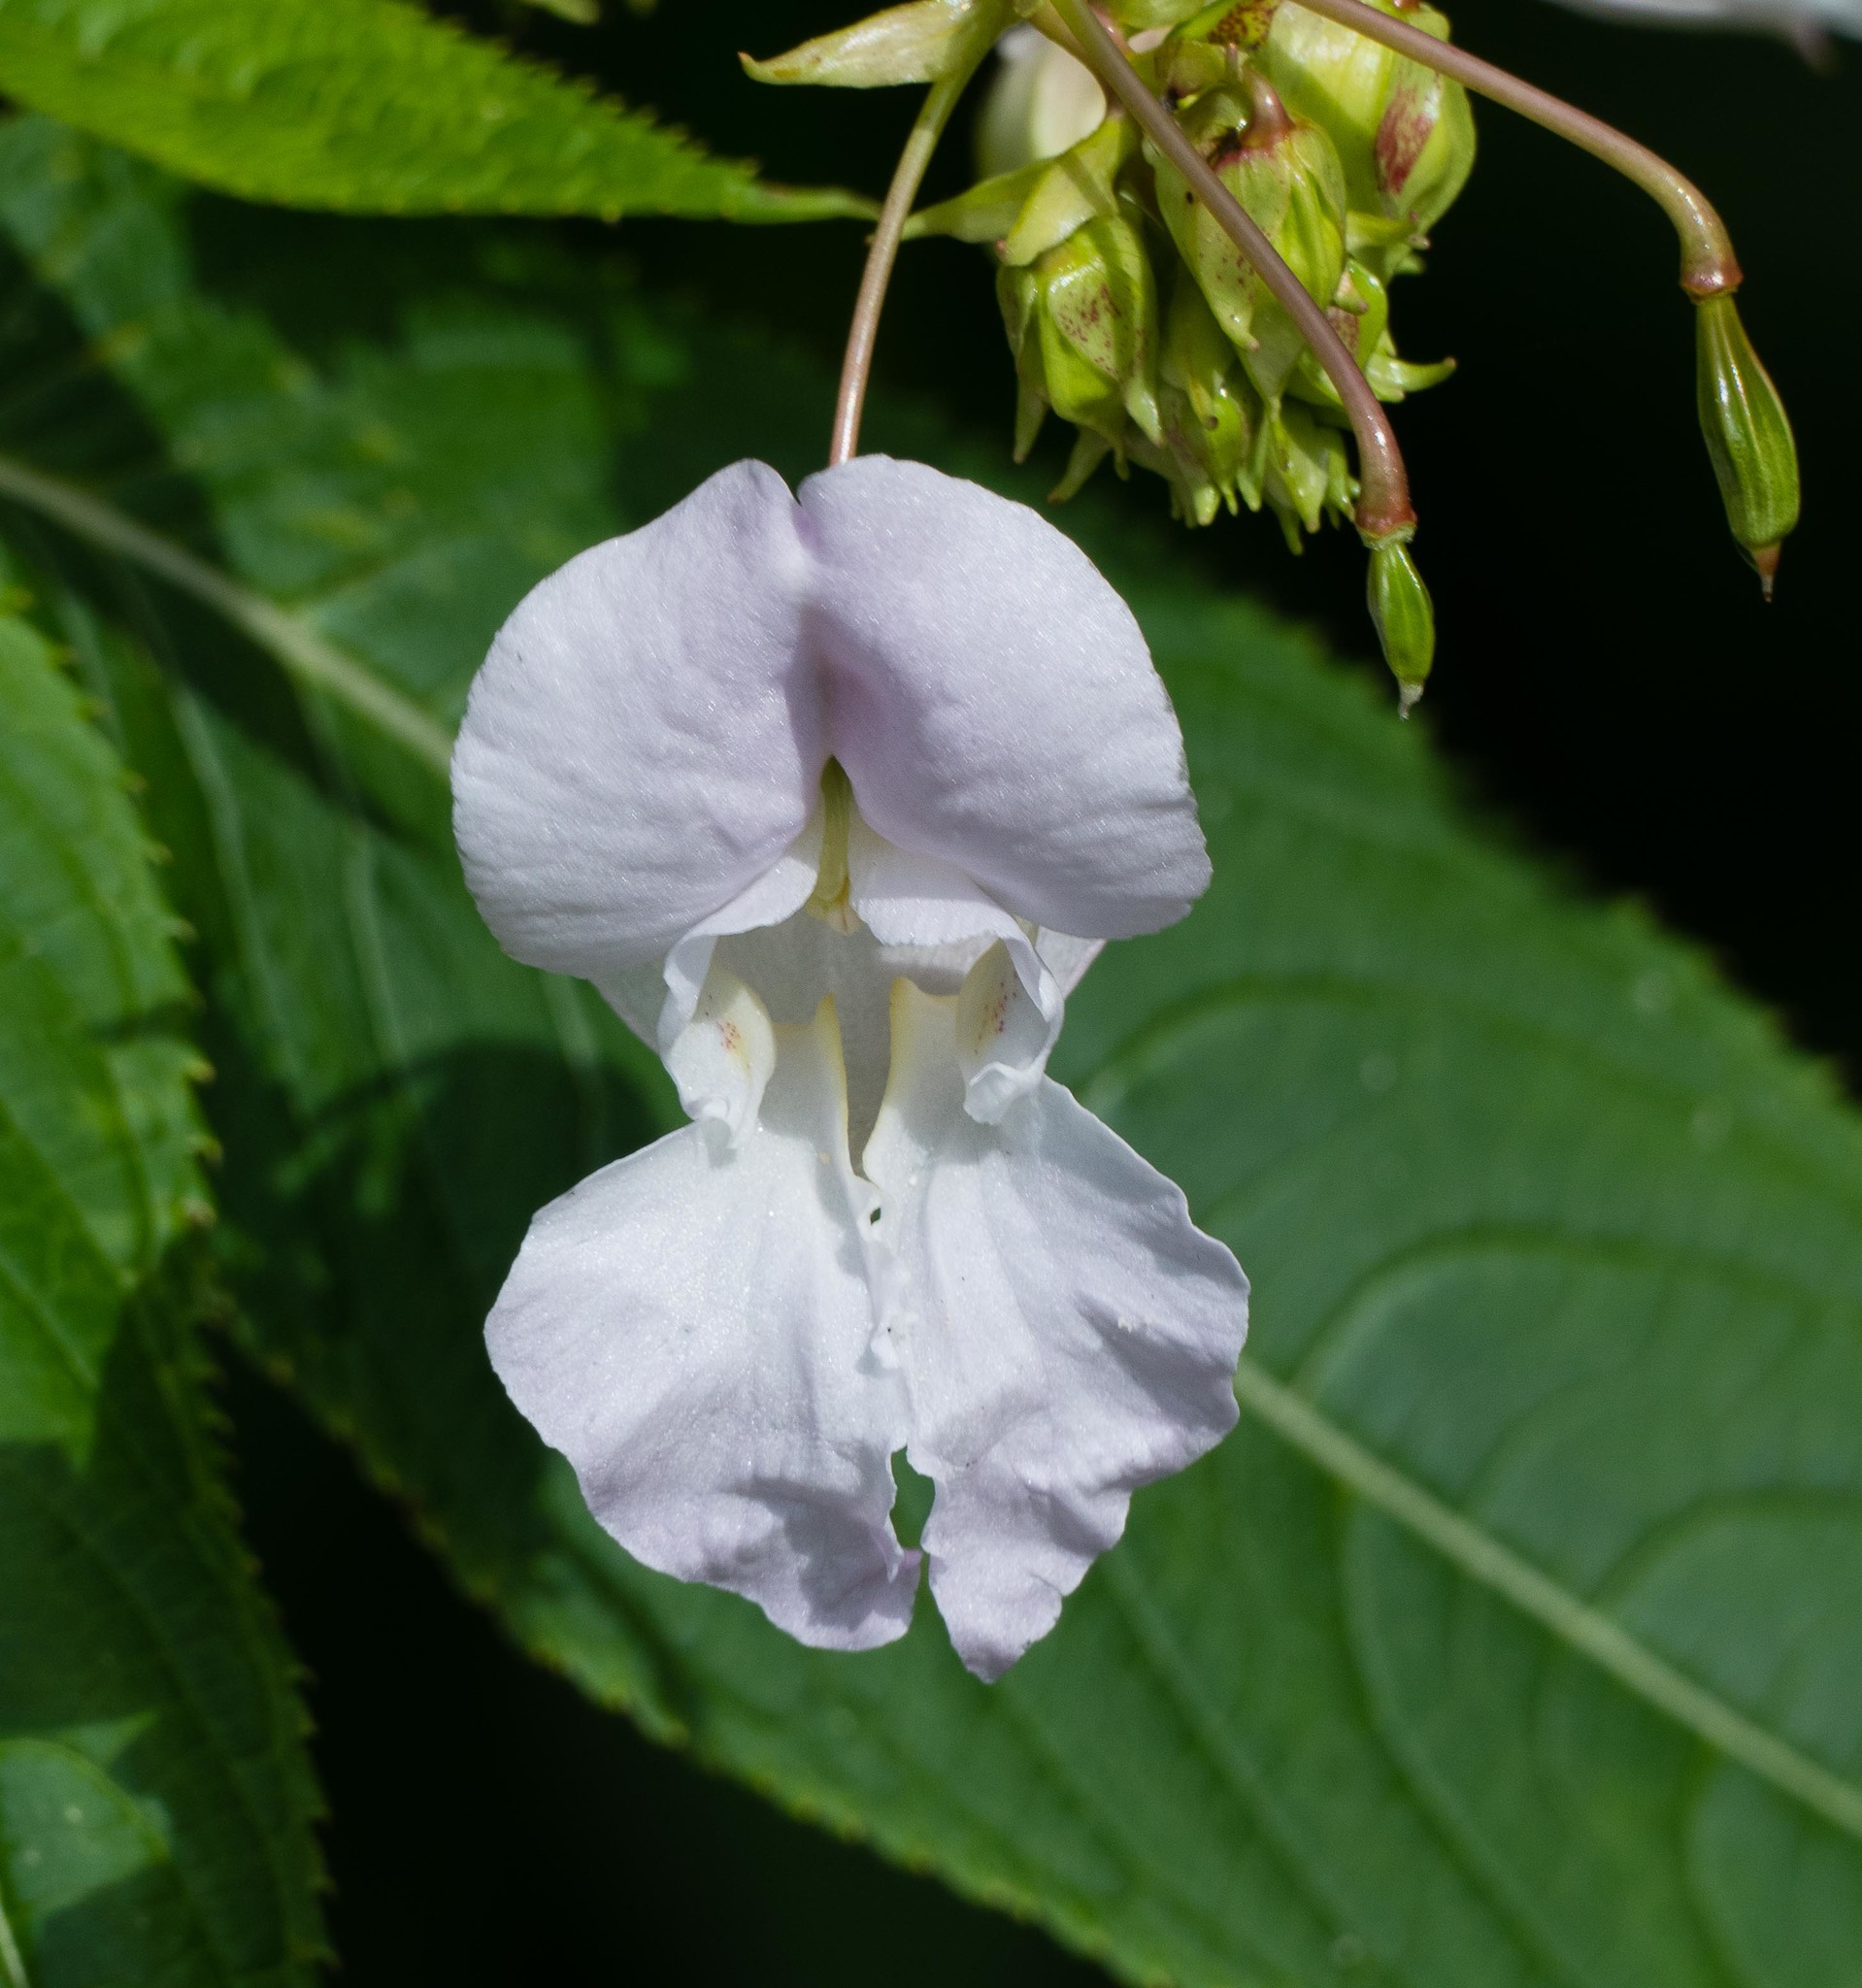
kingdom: Plantae
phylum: Tracheophyta
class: Magnoliopsida
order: Ericales
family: Balsaminaceae
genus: Impatiens
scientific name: Impatiens glandulifera
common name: Himalayan balsam
